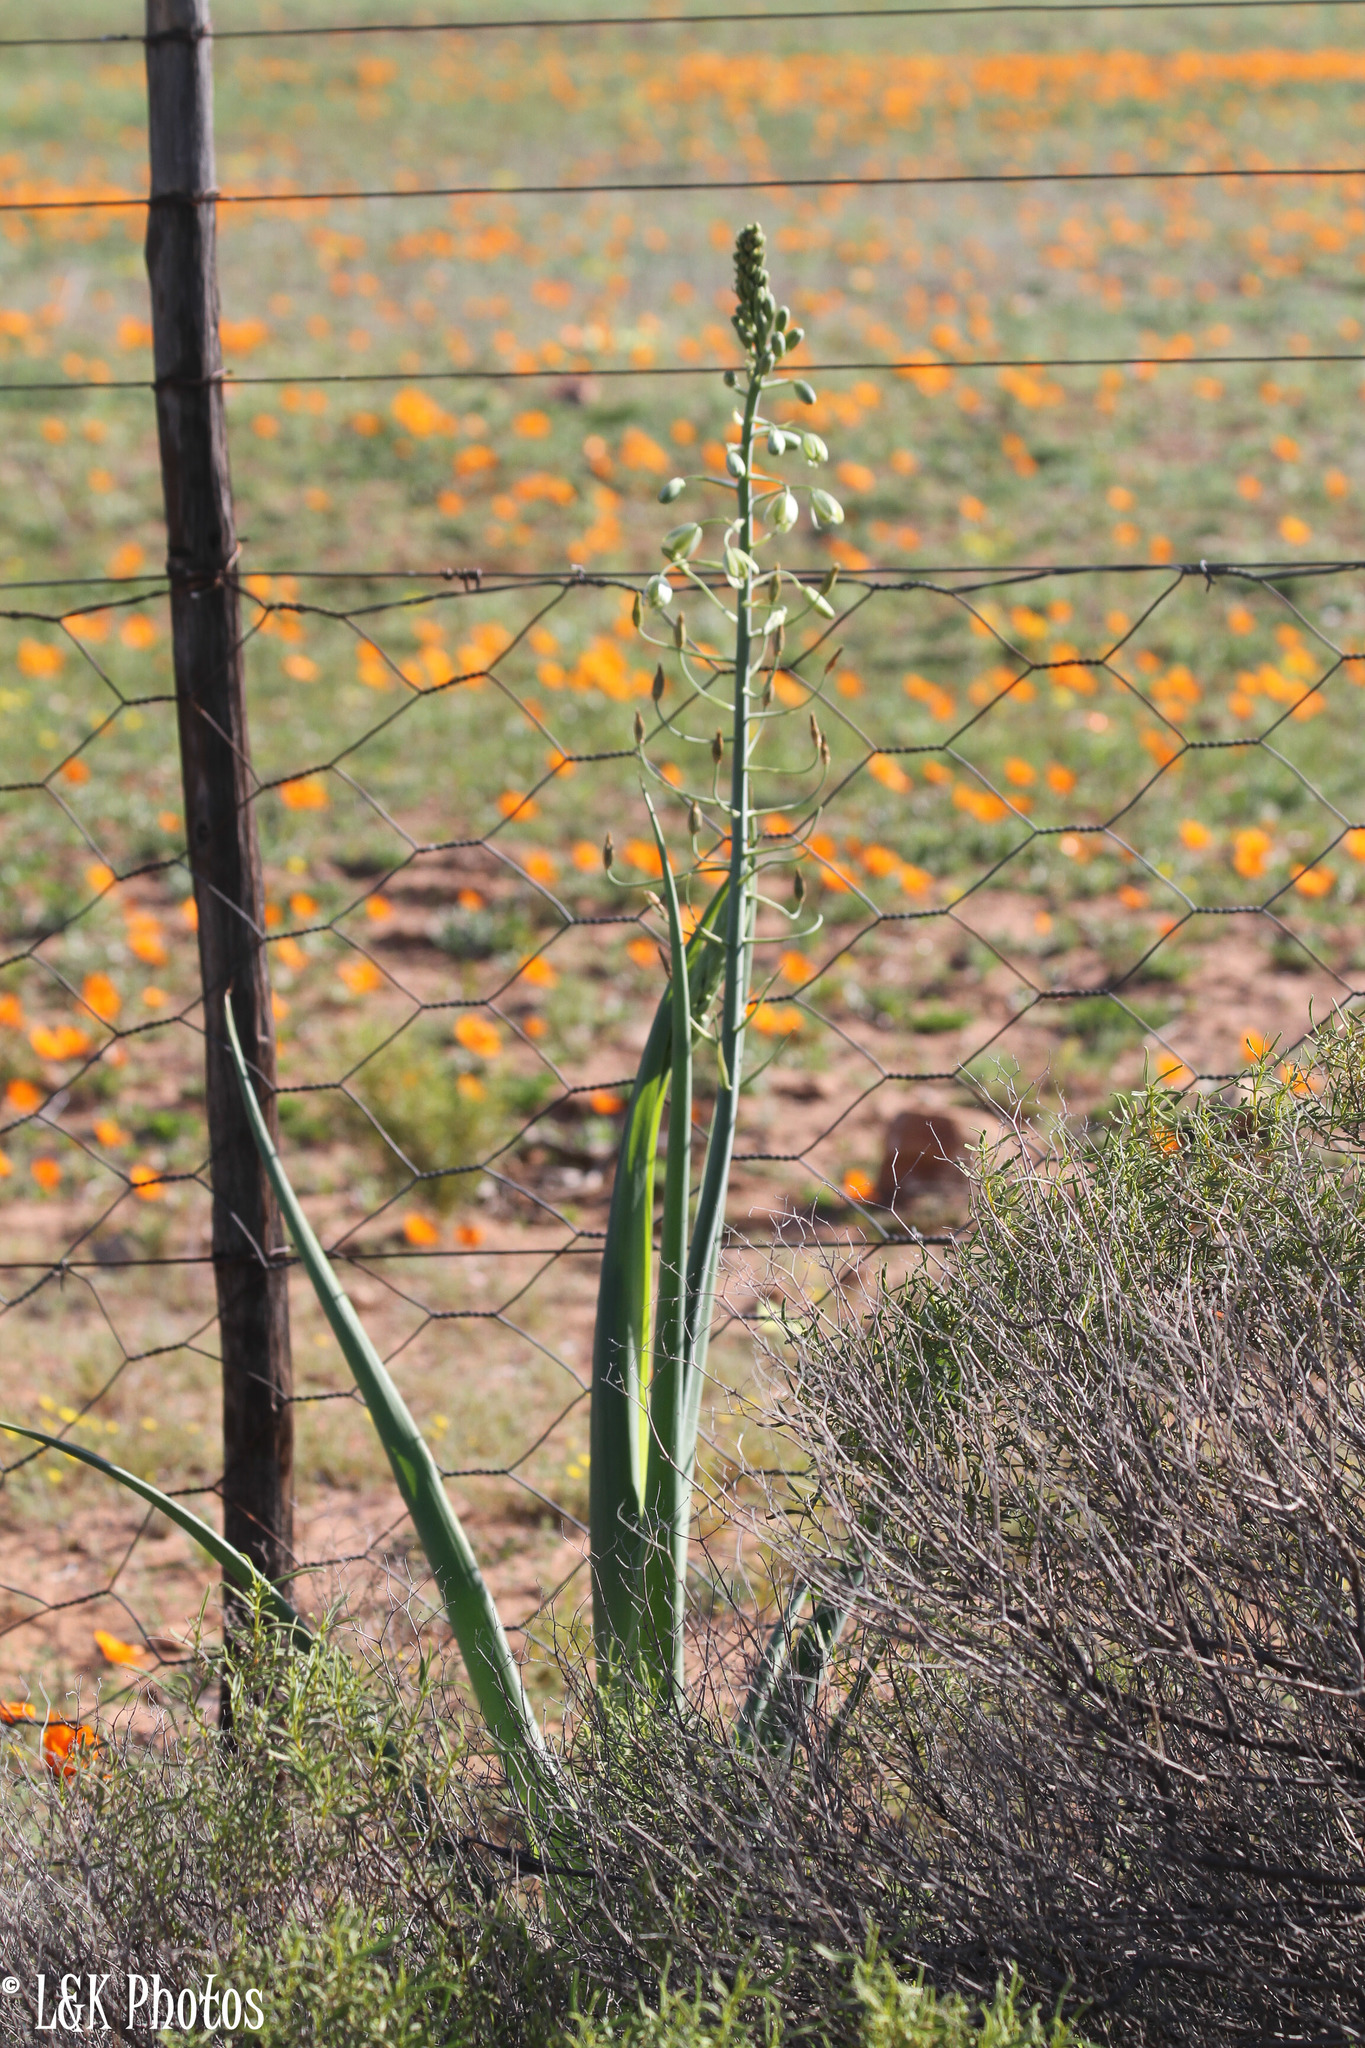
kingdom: Plantae
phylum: Tracheophyta
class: Liliopsida
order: Asparagales
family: Asparagaceae
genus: Albuca
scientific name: Albuca canadensis
